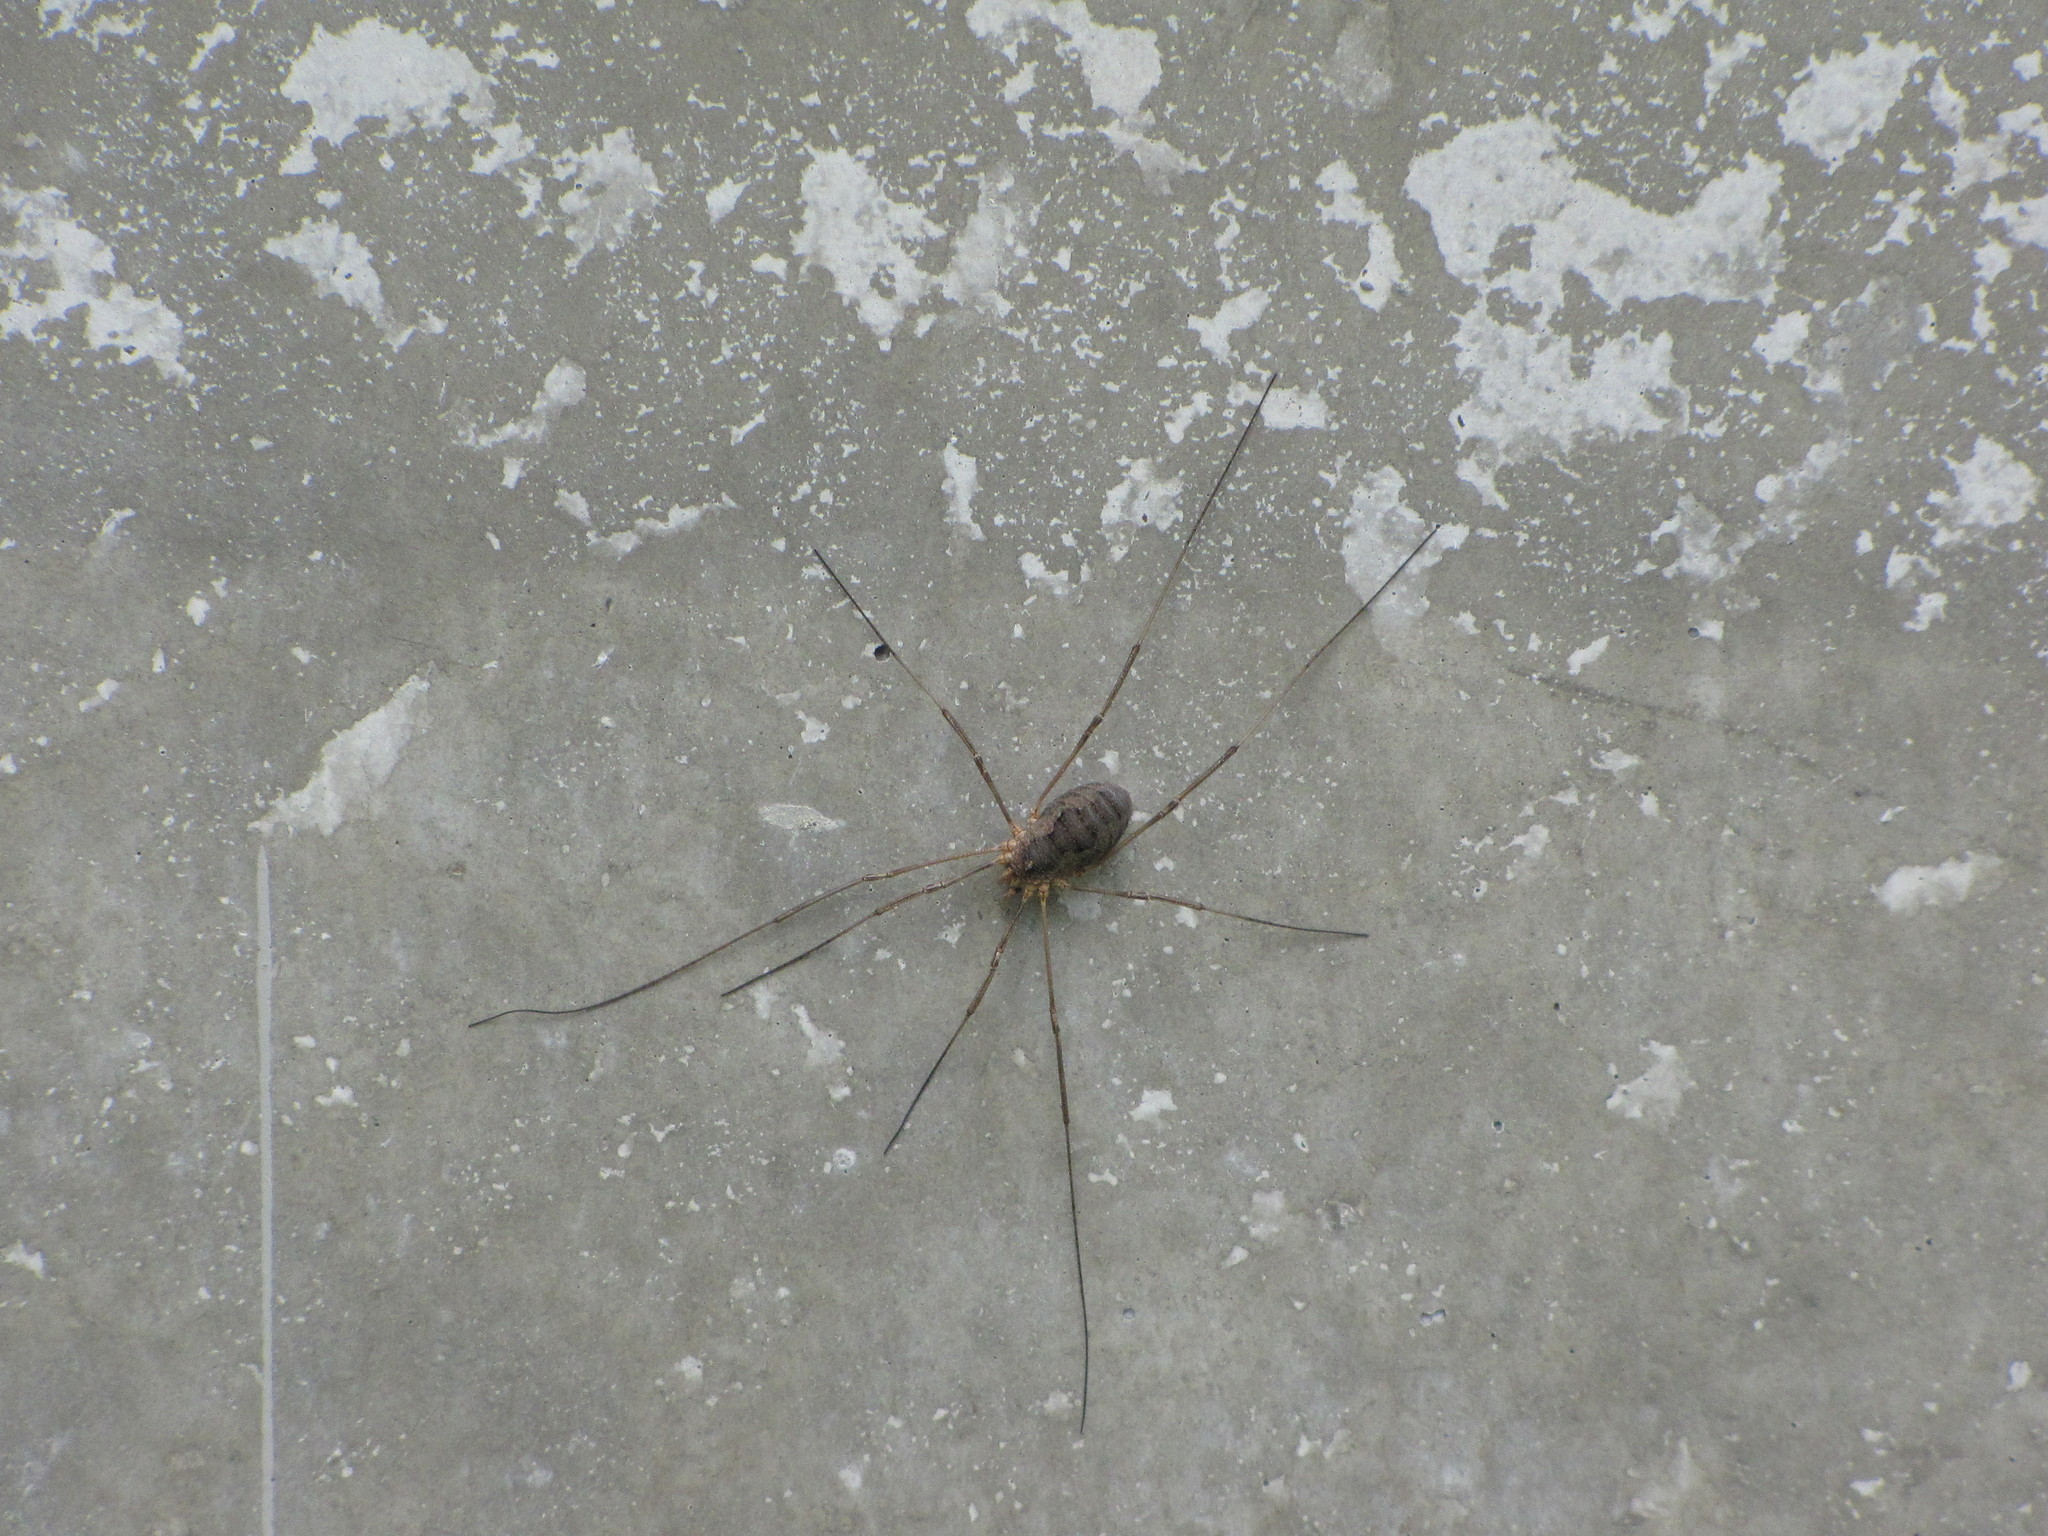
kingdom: Animalia
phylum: Arthropoda
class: Arachnida
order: Opiliones
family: Phalangiidae
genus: Phalangium
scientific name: Phalangium opilio
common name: Daddy longleg
